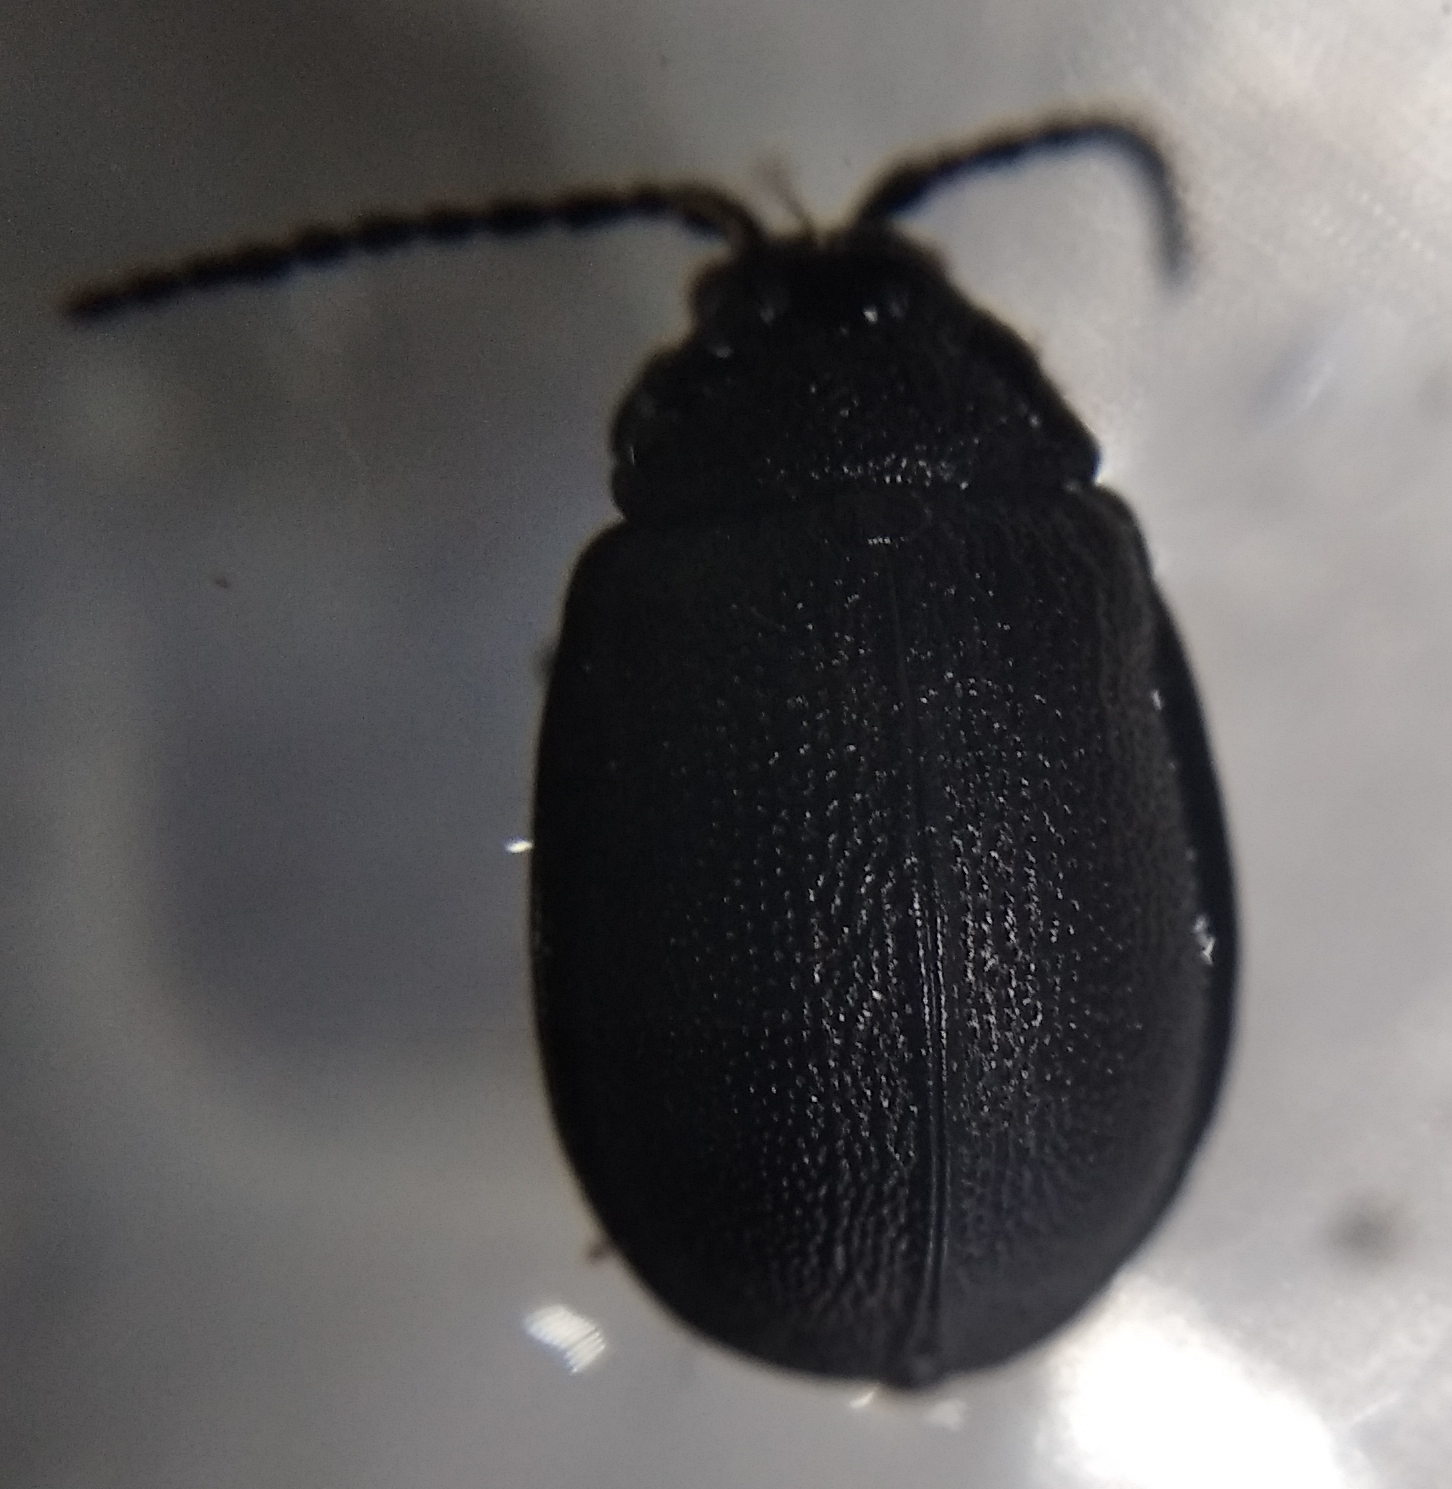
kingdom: Animalia
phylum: Arthropoda
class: Insecta
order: Coleoptera
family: Chrysomelidae
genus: Galeruca
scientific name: Galeruca tanaceti
